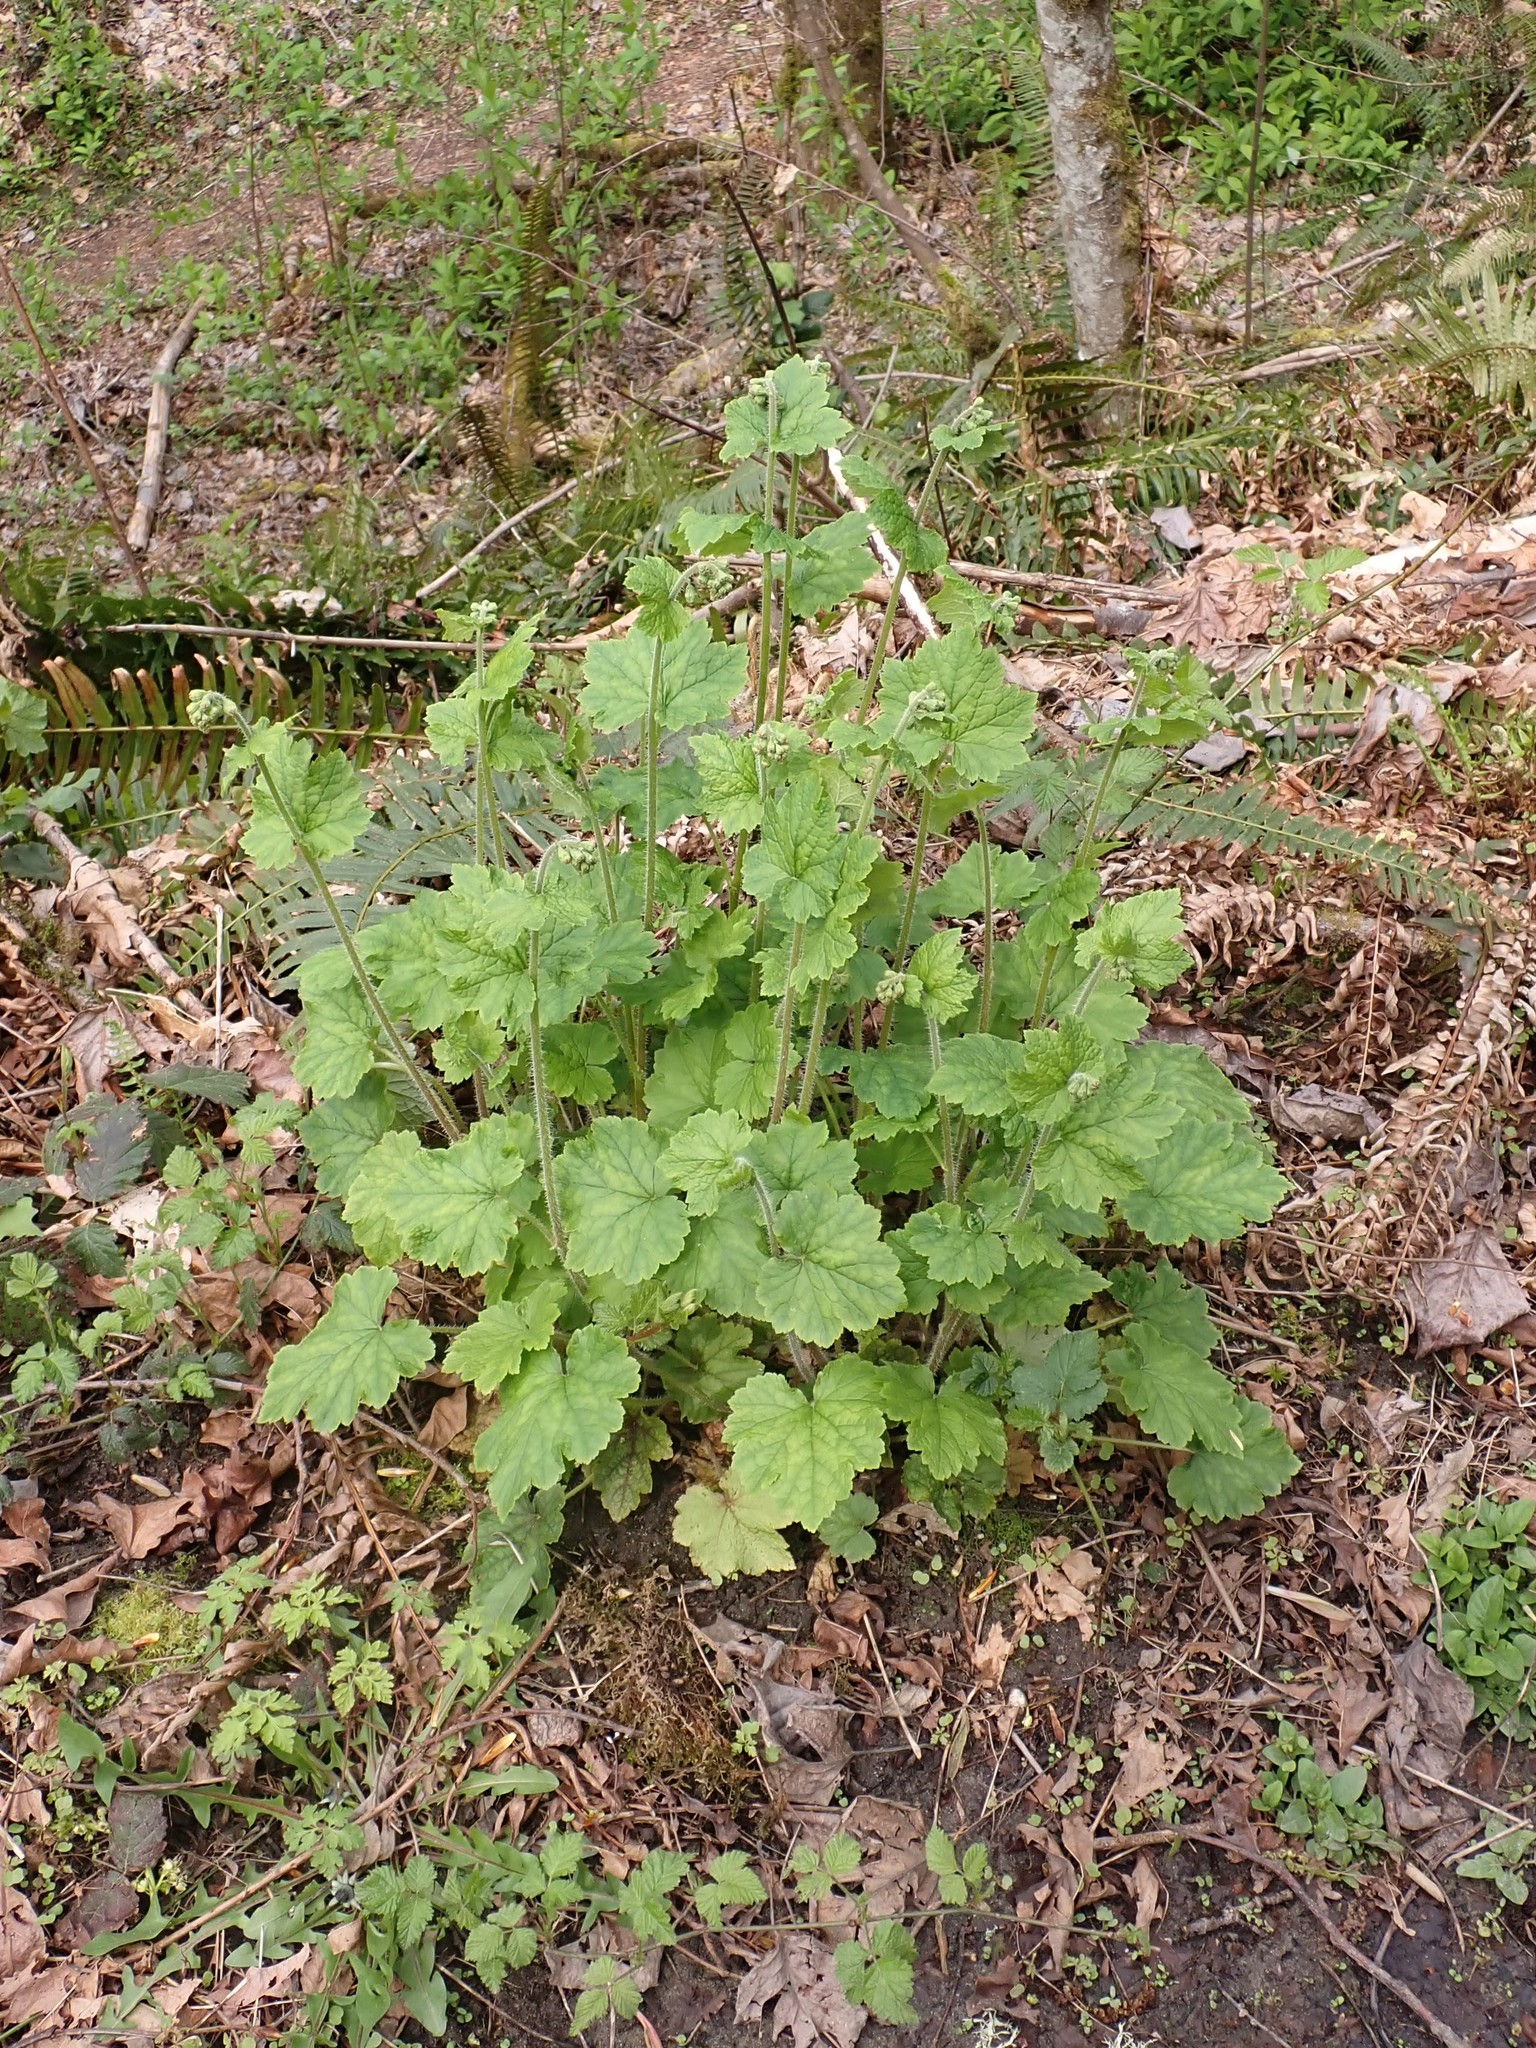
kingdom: Plantae
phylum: Tracheophyta
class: Magnoliopsida
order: Saxifragales
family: Saxifragaceae
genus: Tellima
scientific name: Tellima grandiflora
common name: Fringecups
